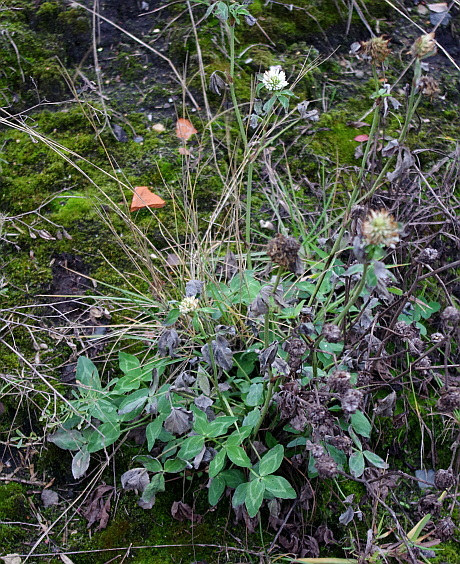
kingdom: Plantae
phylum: Tracheophyta
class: Magnoliopsida
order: Fabales
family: Fabaceae
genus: Trifolium
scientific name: Trifolium pratense
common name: Red clover
